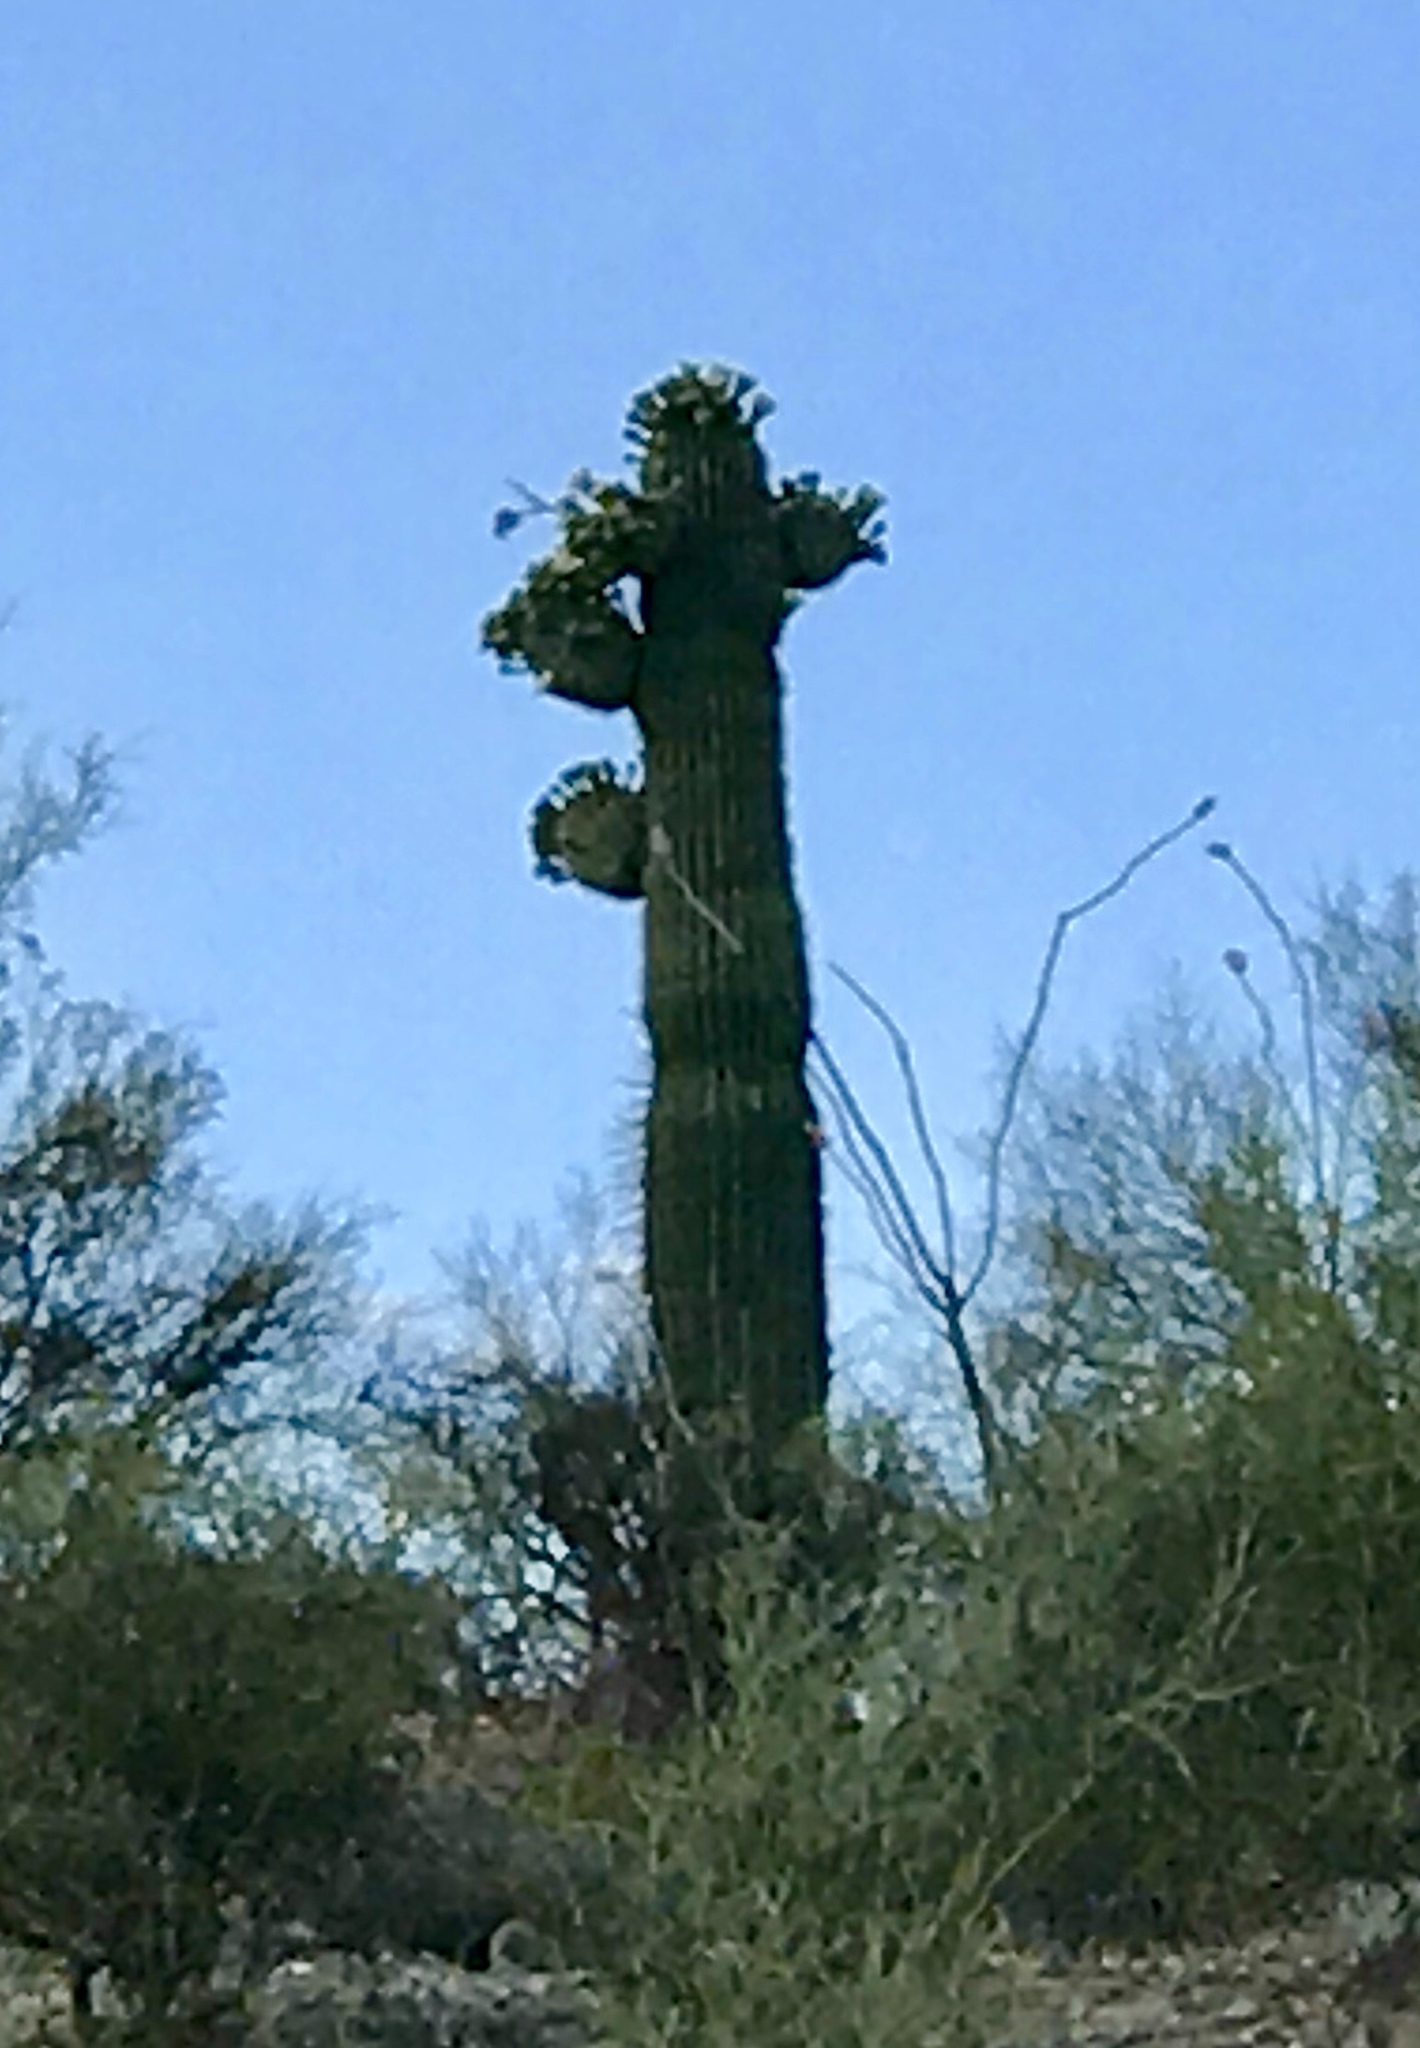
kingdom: Plantae
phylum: Tracheophyta
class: Magnoliopsida
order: Caryophyllales
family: Cactaceae
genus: Carnegiea
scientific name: Carnegiea gigantea
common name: Saguaro
